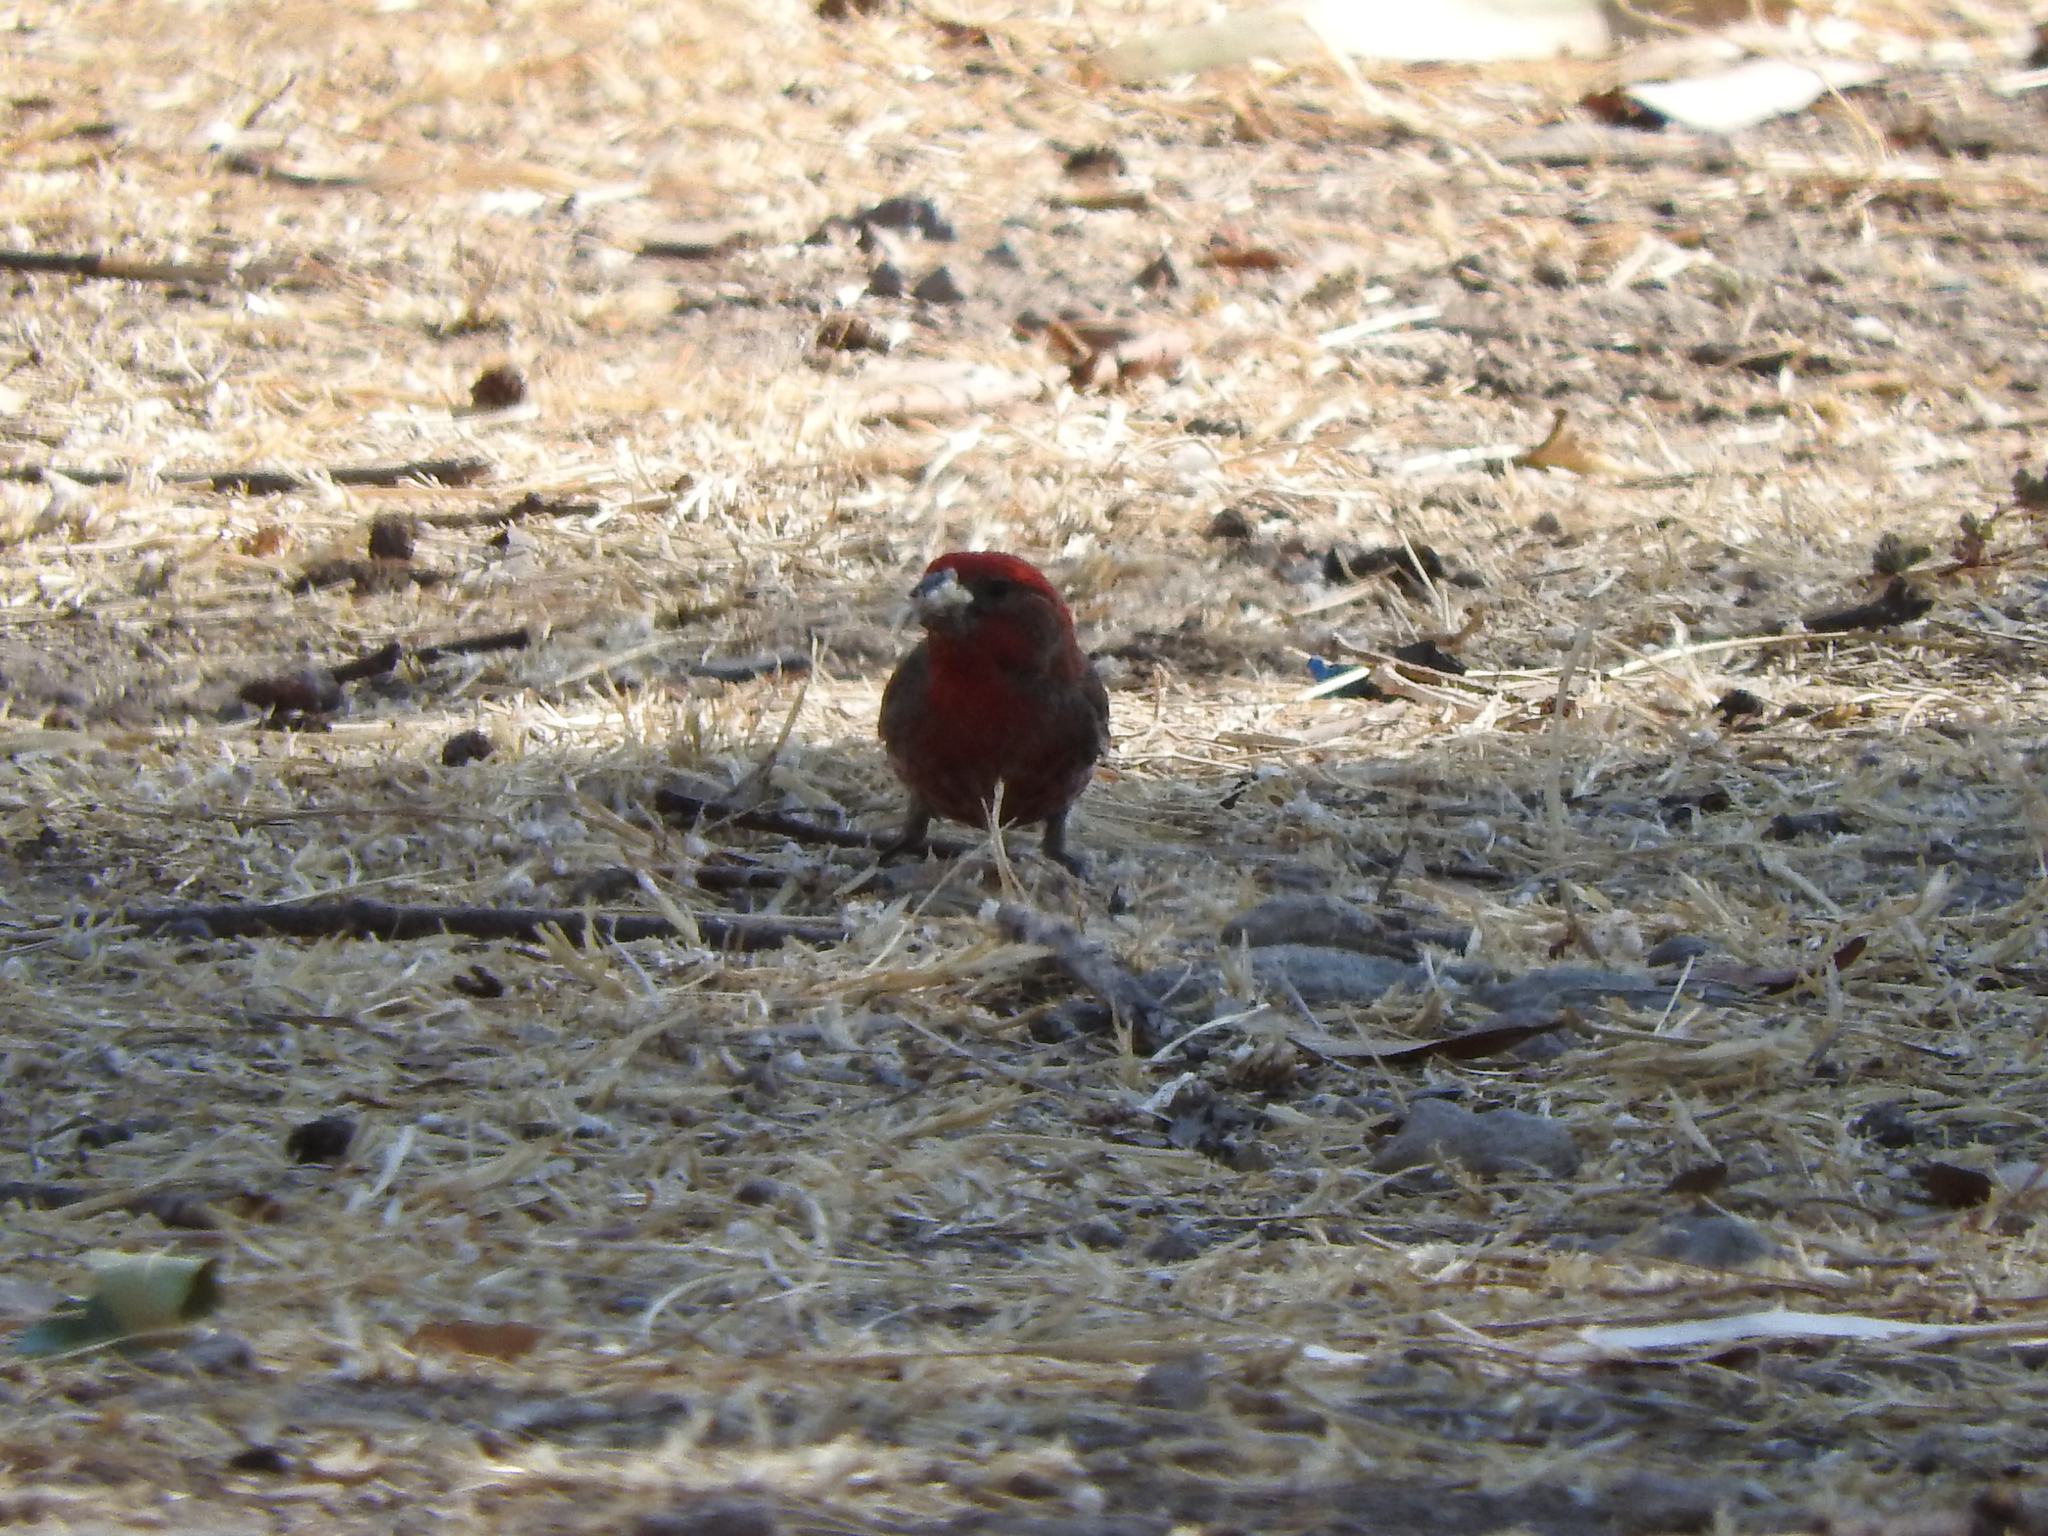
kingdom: Animalia
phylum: Chordata
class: Aves
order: Passeriformes
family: Fringillidae
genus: Haemorhous
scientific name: Haemorhous mexicanus
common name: House finch
